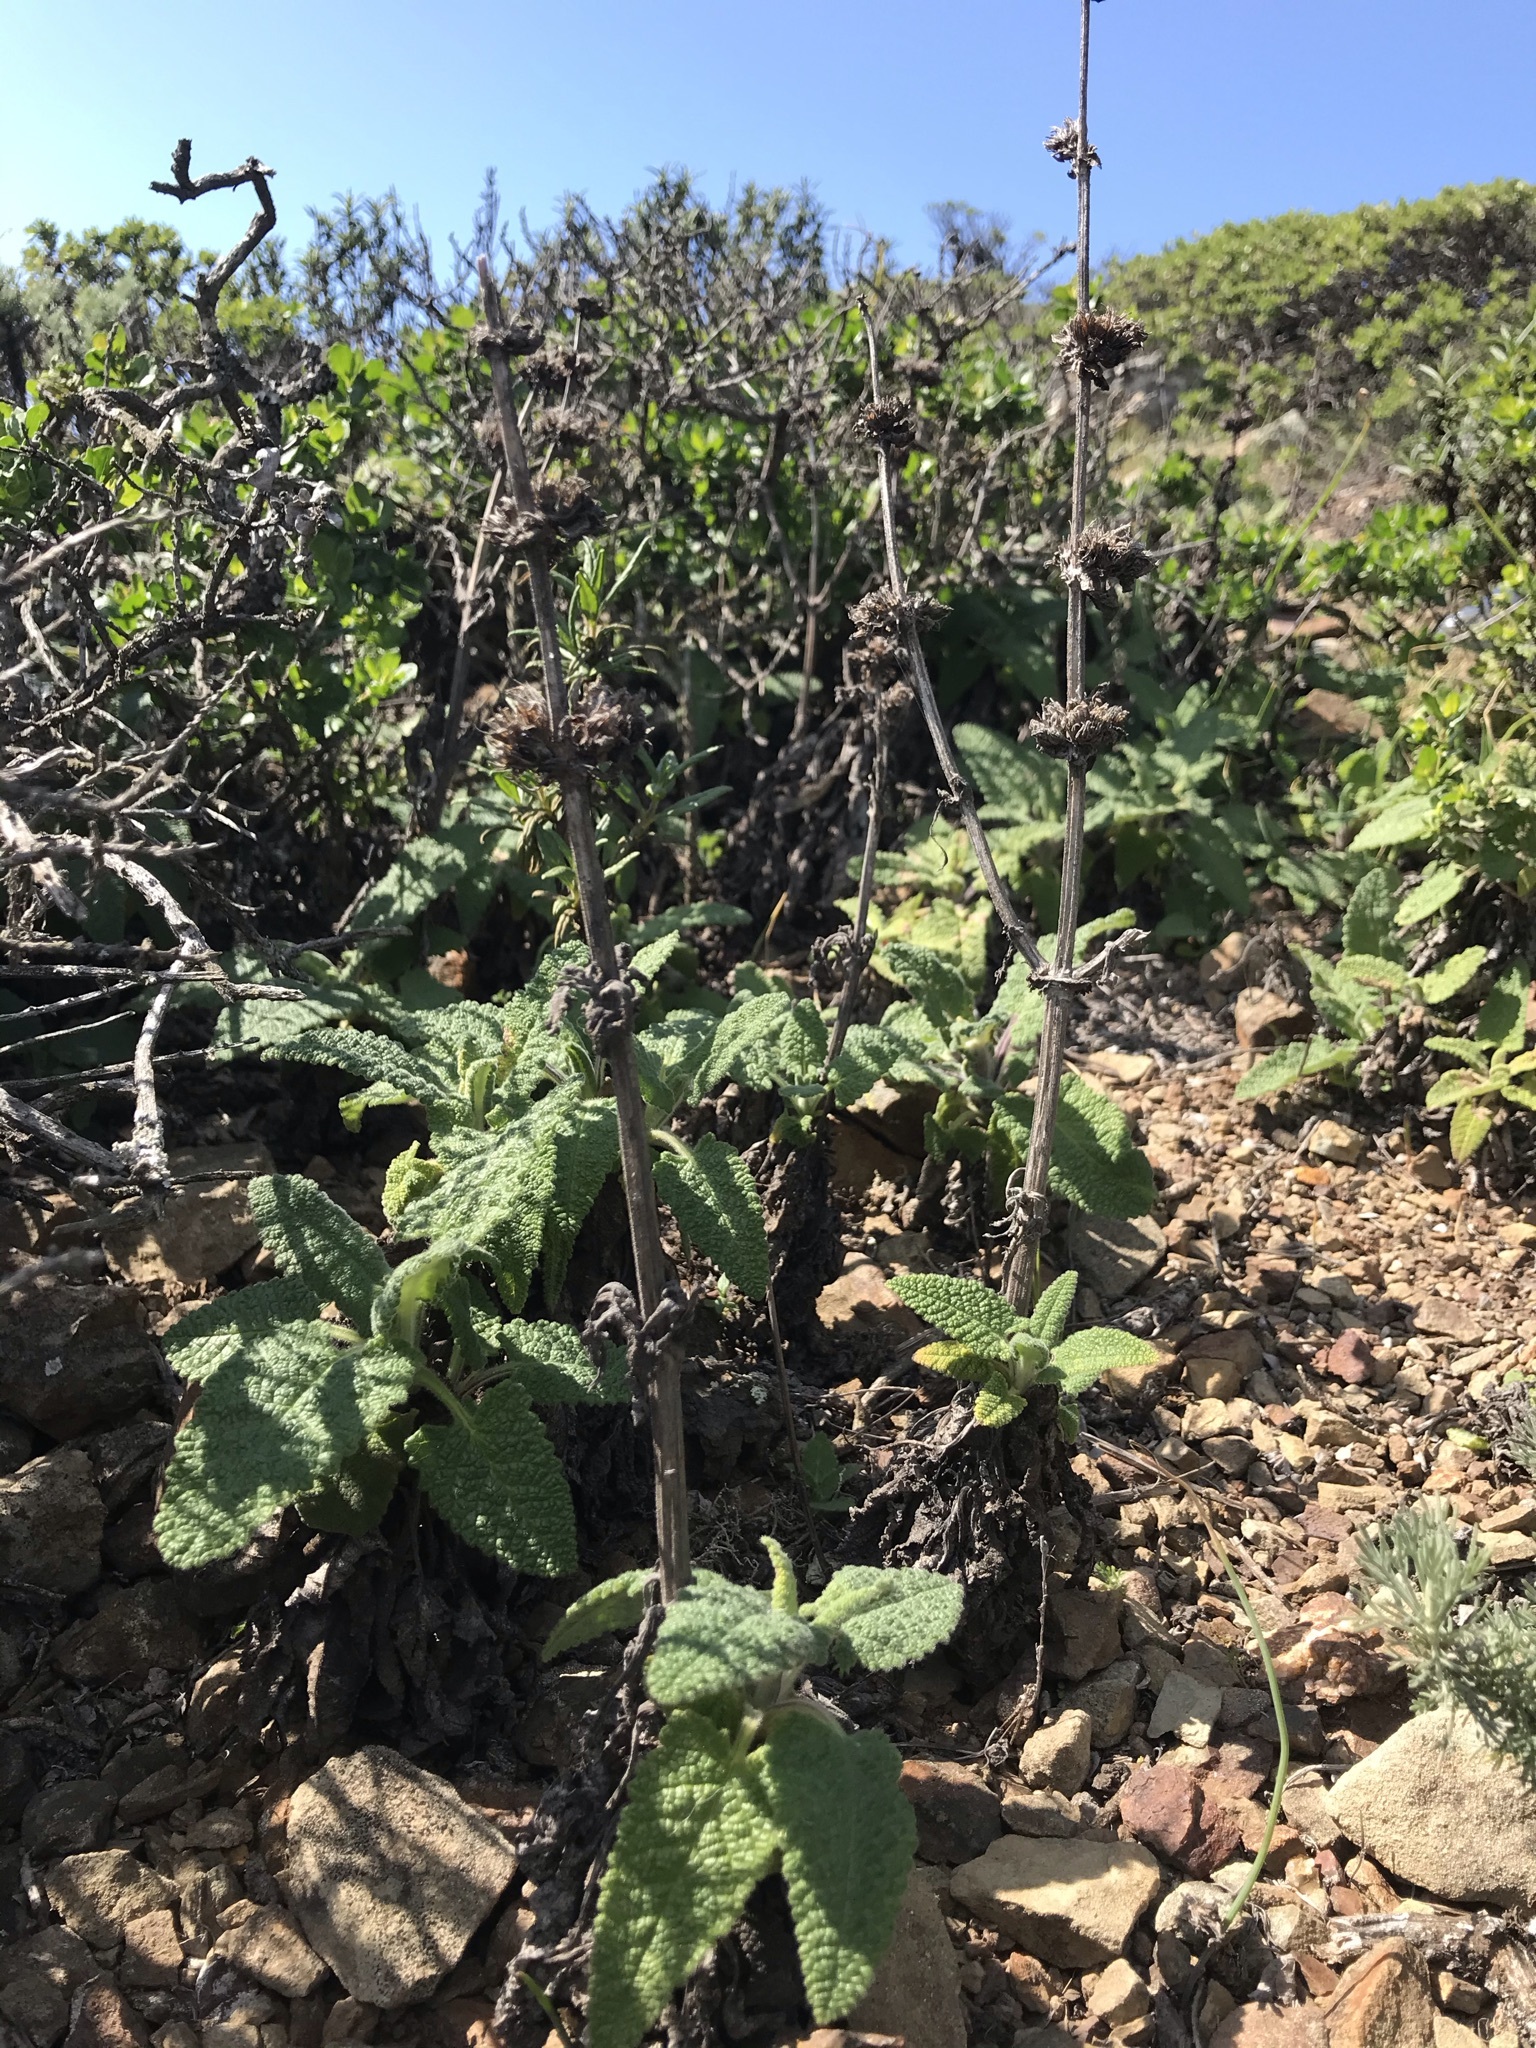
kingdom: Plantae
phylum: Tracheophyta
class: Magnoliopsida
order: Lamiales
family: Lamiaceae
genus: Salvia
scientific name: Salvia spathacea
